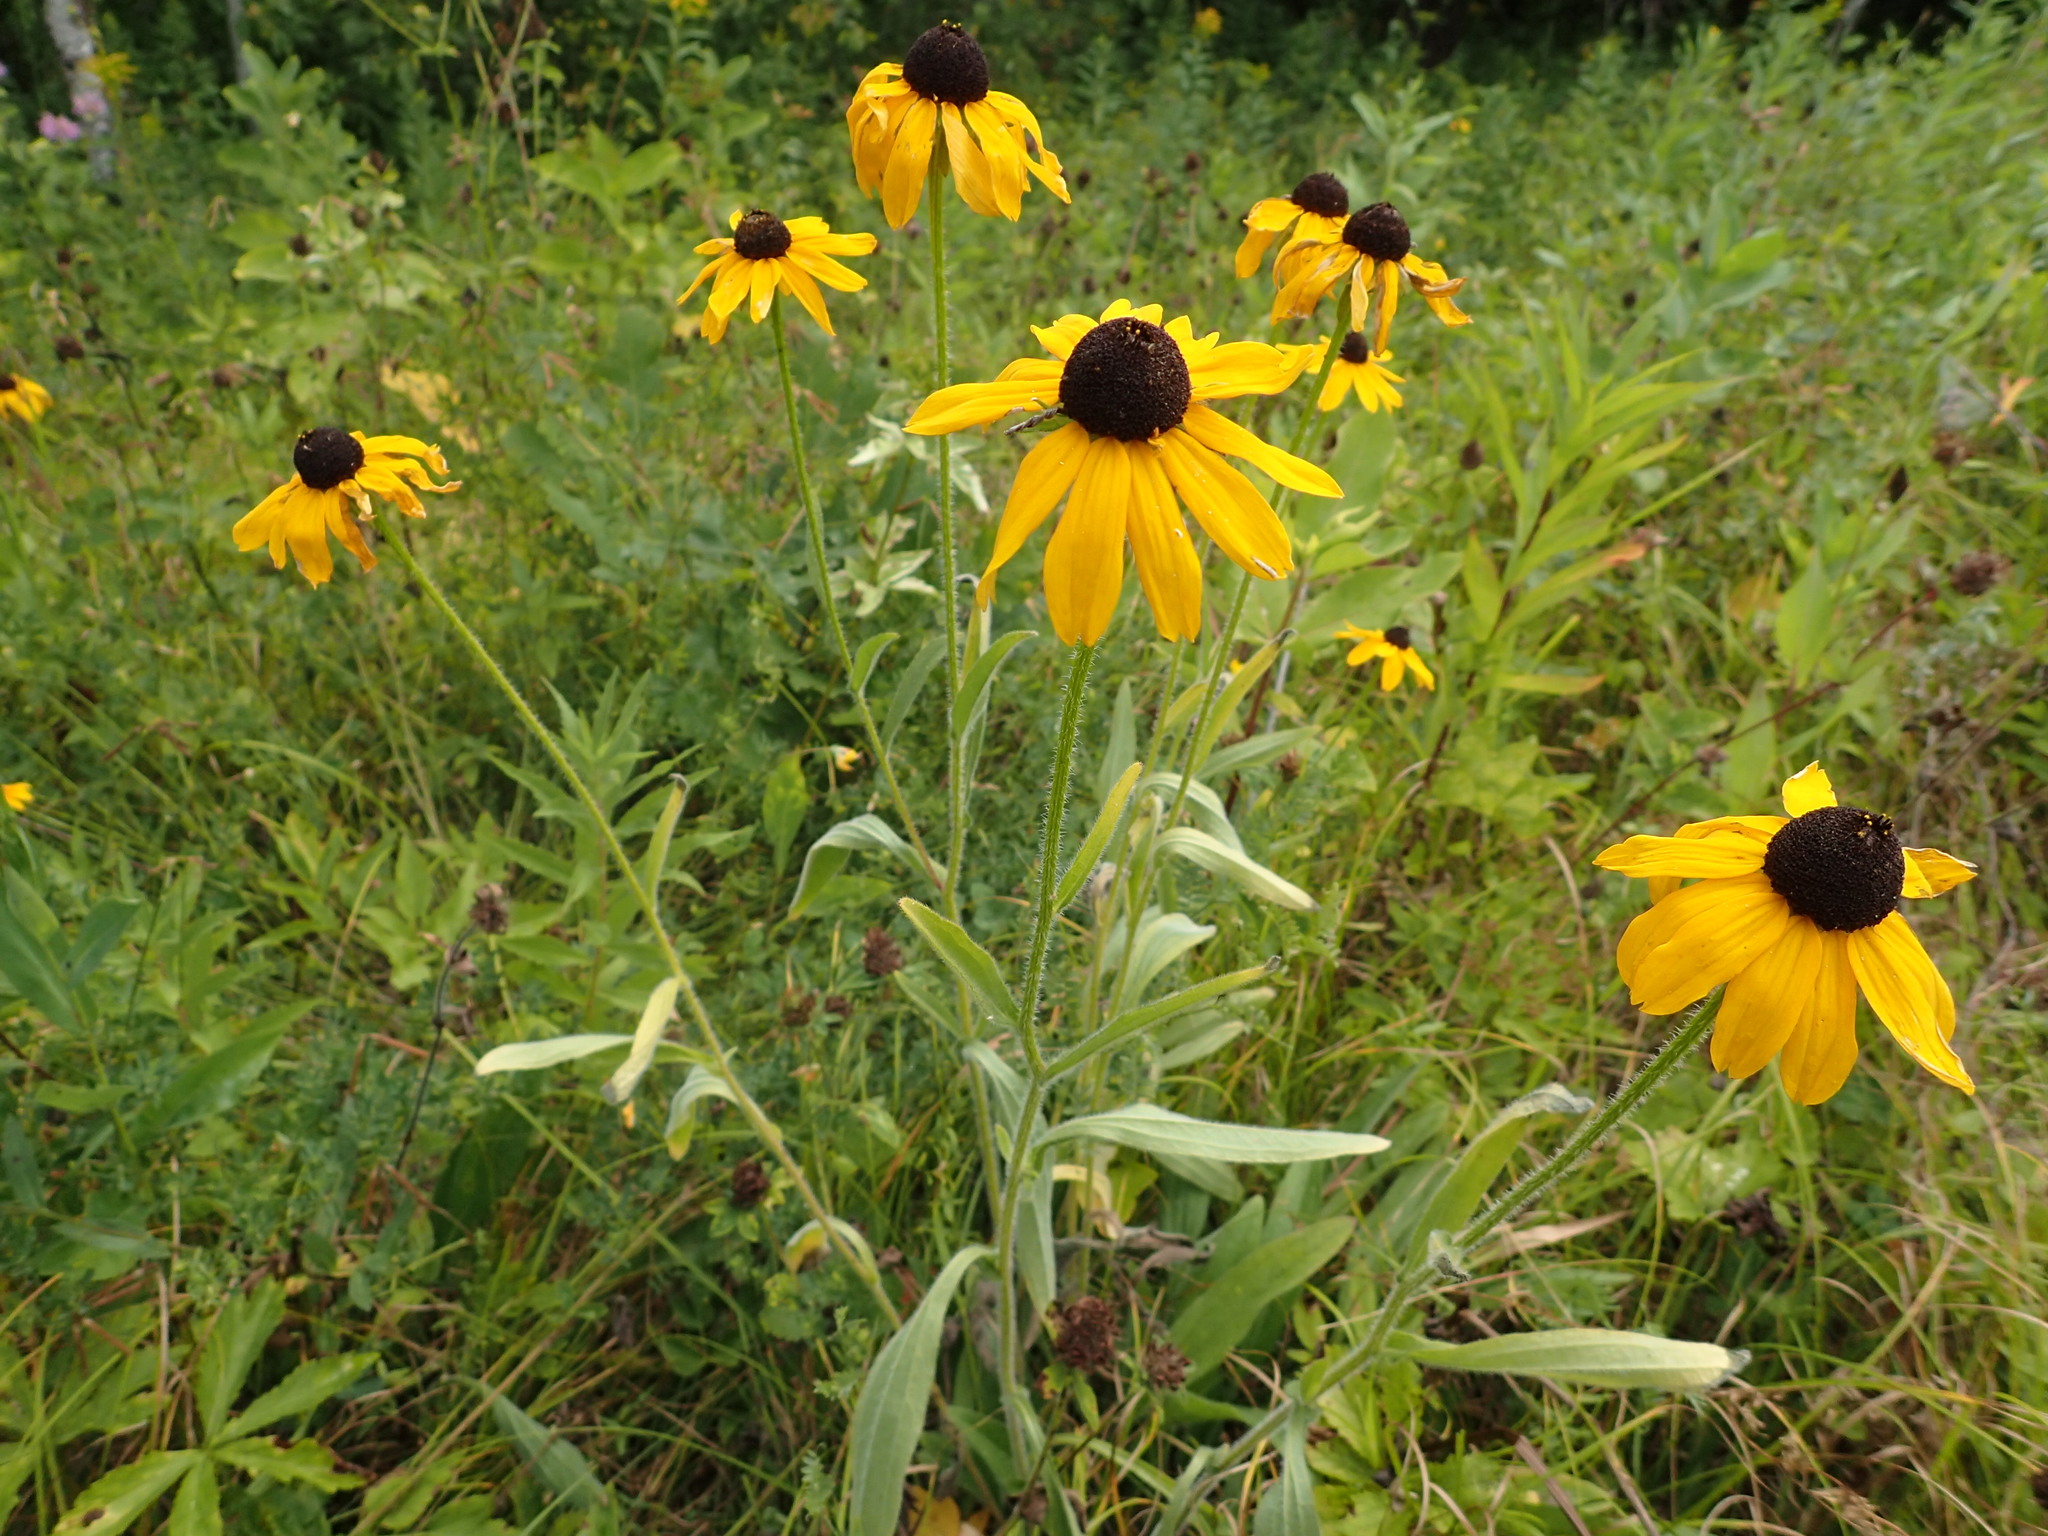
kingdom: Plantae
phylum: Tracheophyta
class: Magnoliopsida
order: Asterales
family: Asteraceae
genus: Rudbeckia
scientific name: Rudbeckia hirta
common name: Black-eyed-susan
